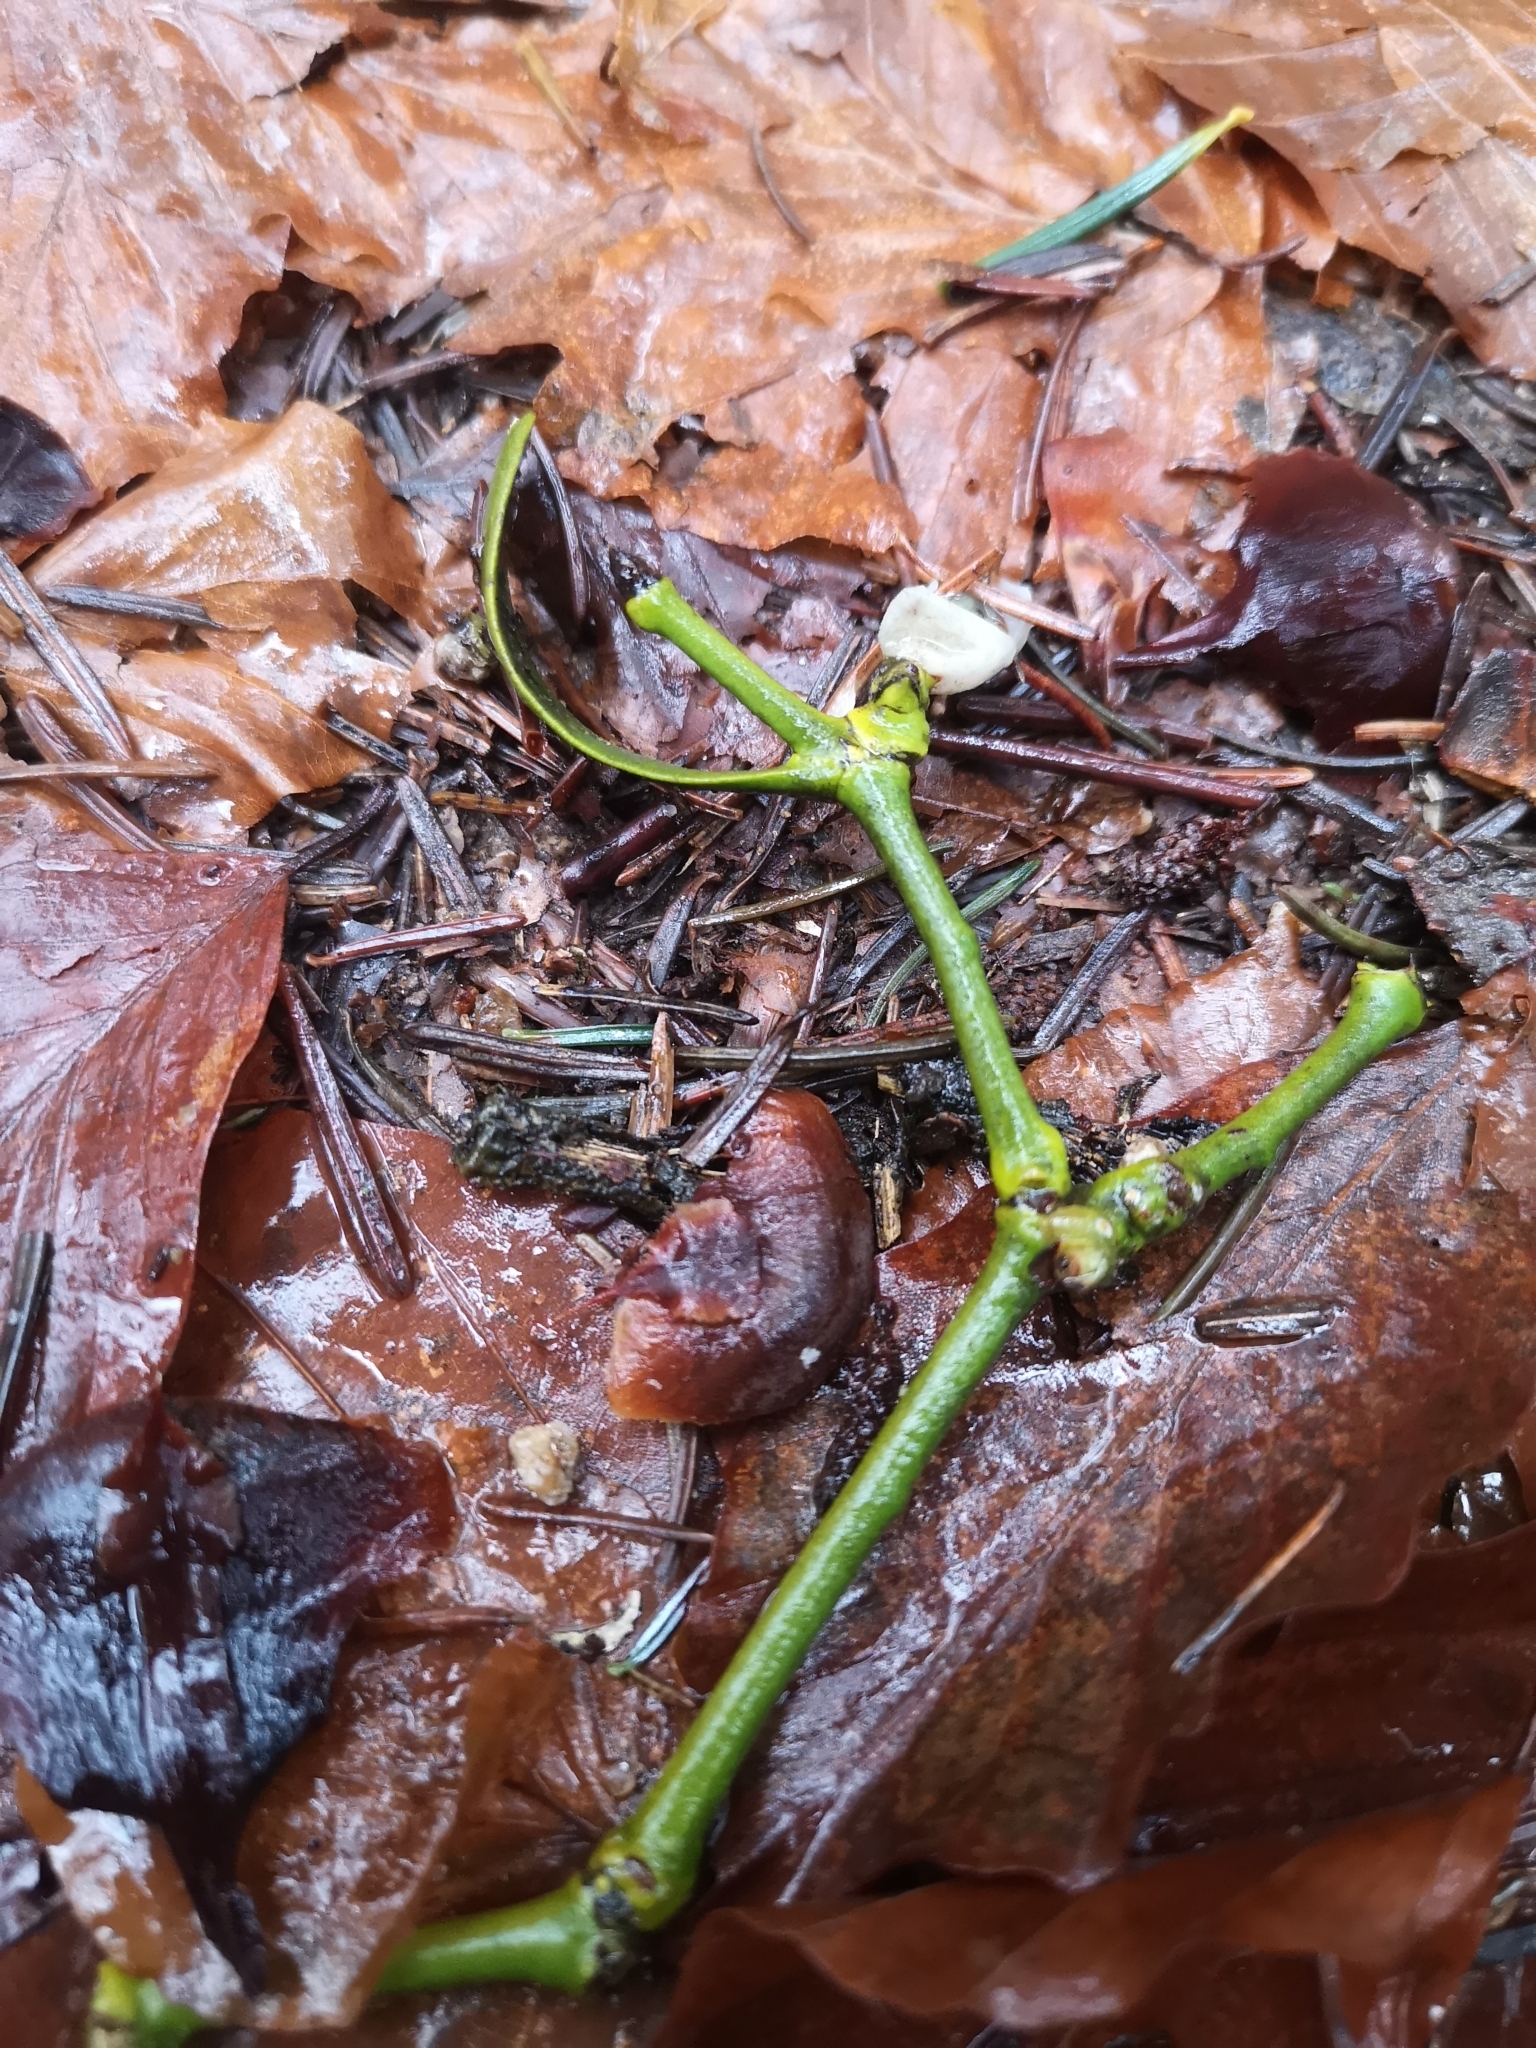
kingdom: Plantae
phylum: Tracheophyta
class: Magnoliopsida
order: Santalales
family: Viscaceae
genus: Viscum
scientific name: Viscum album
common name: Mistletoe
